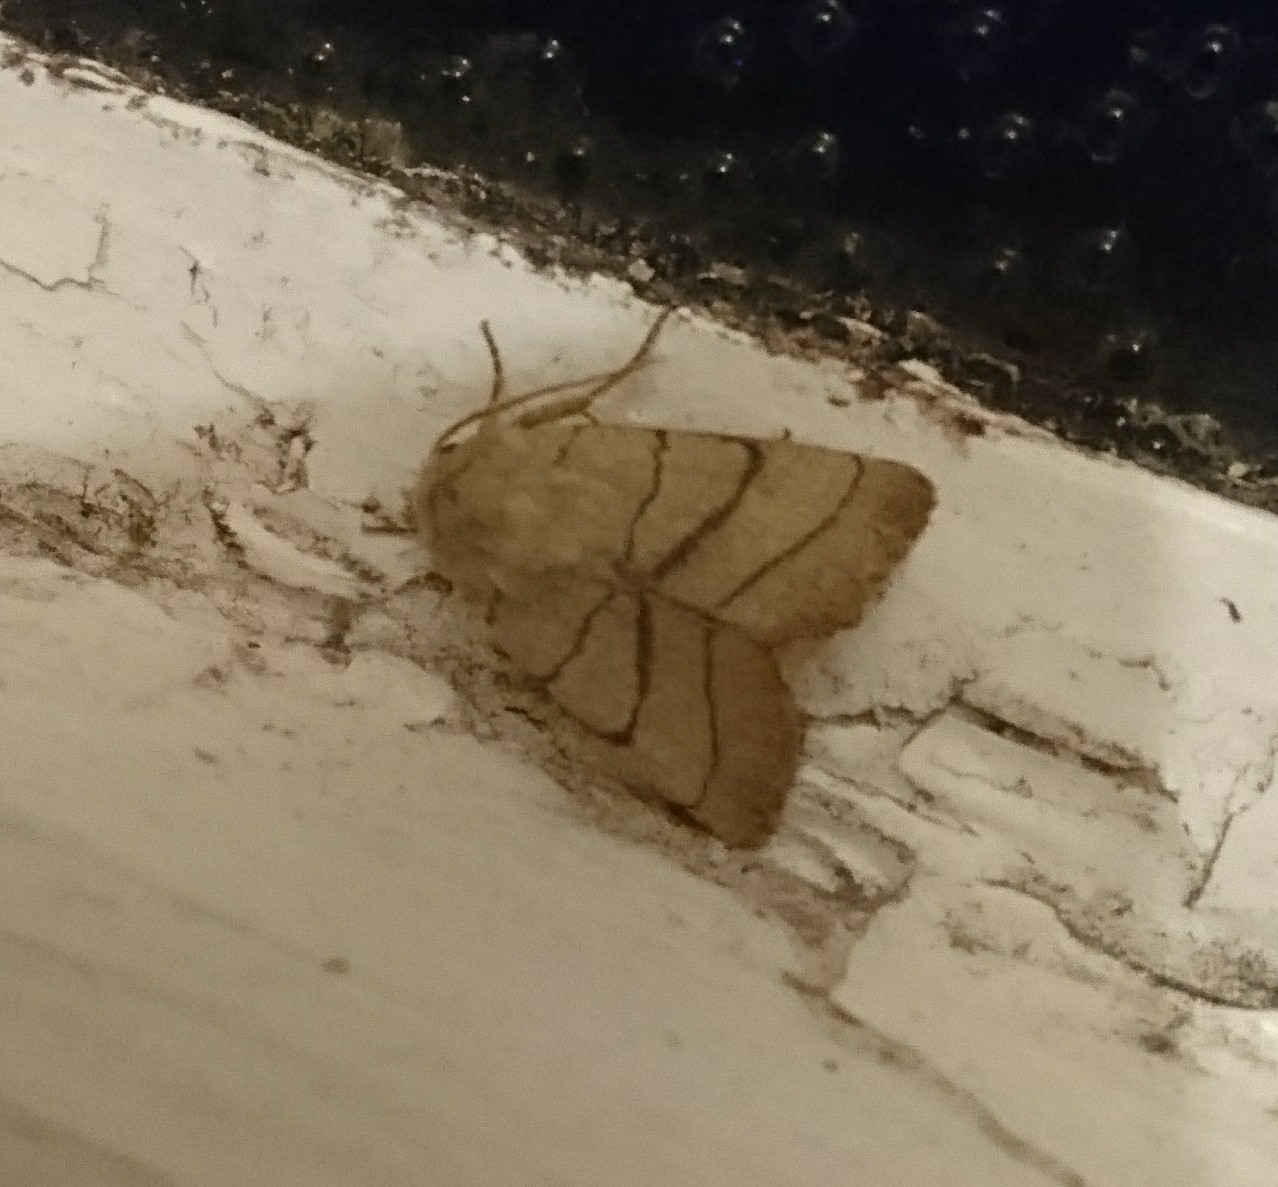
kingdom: Animalia
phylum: Arthropoda
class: Insecta
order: Lepidoptera
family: Noctuidae
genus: Charanyca
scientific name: Charanyca trigrammica
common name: Treble lines
